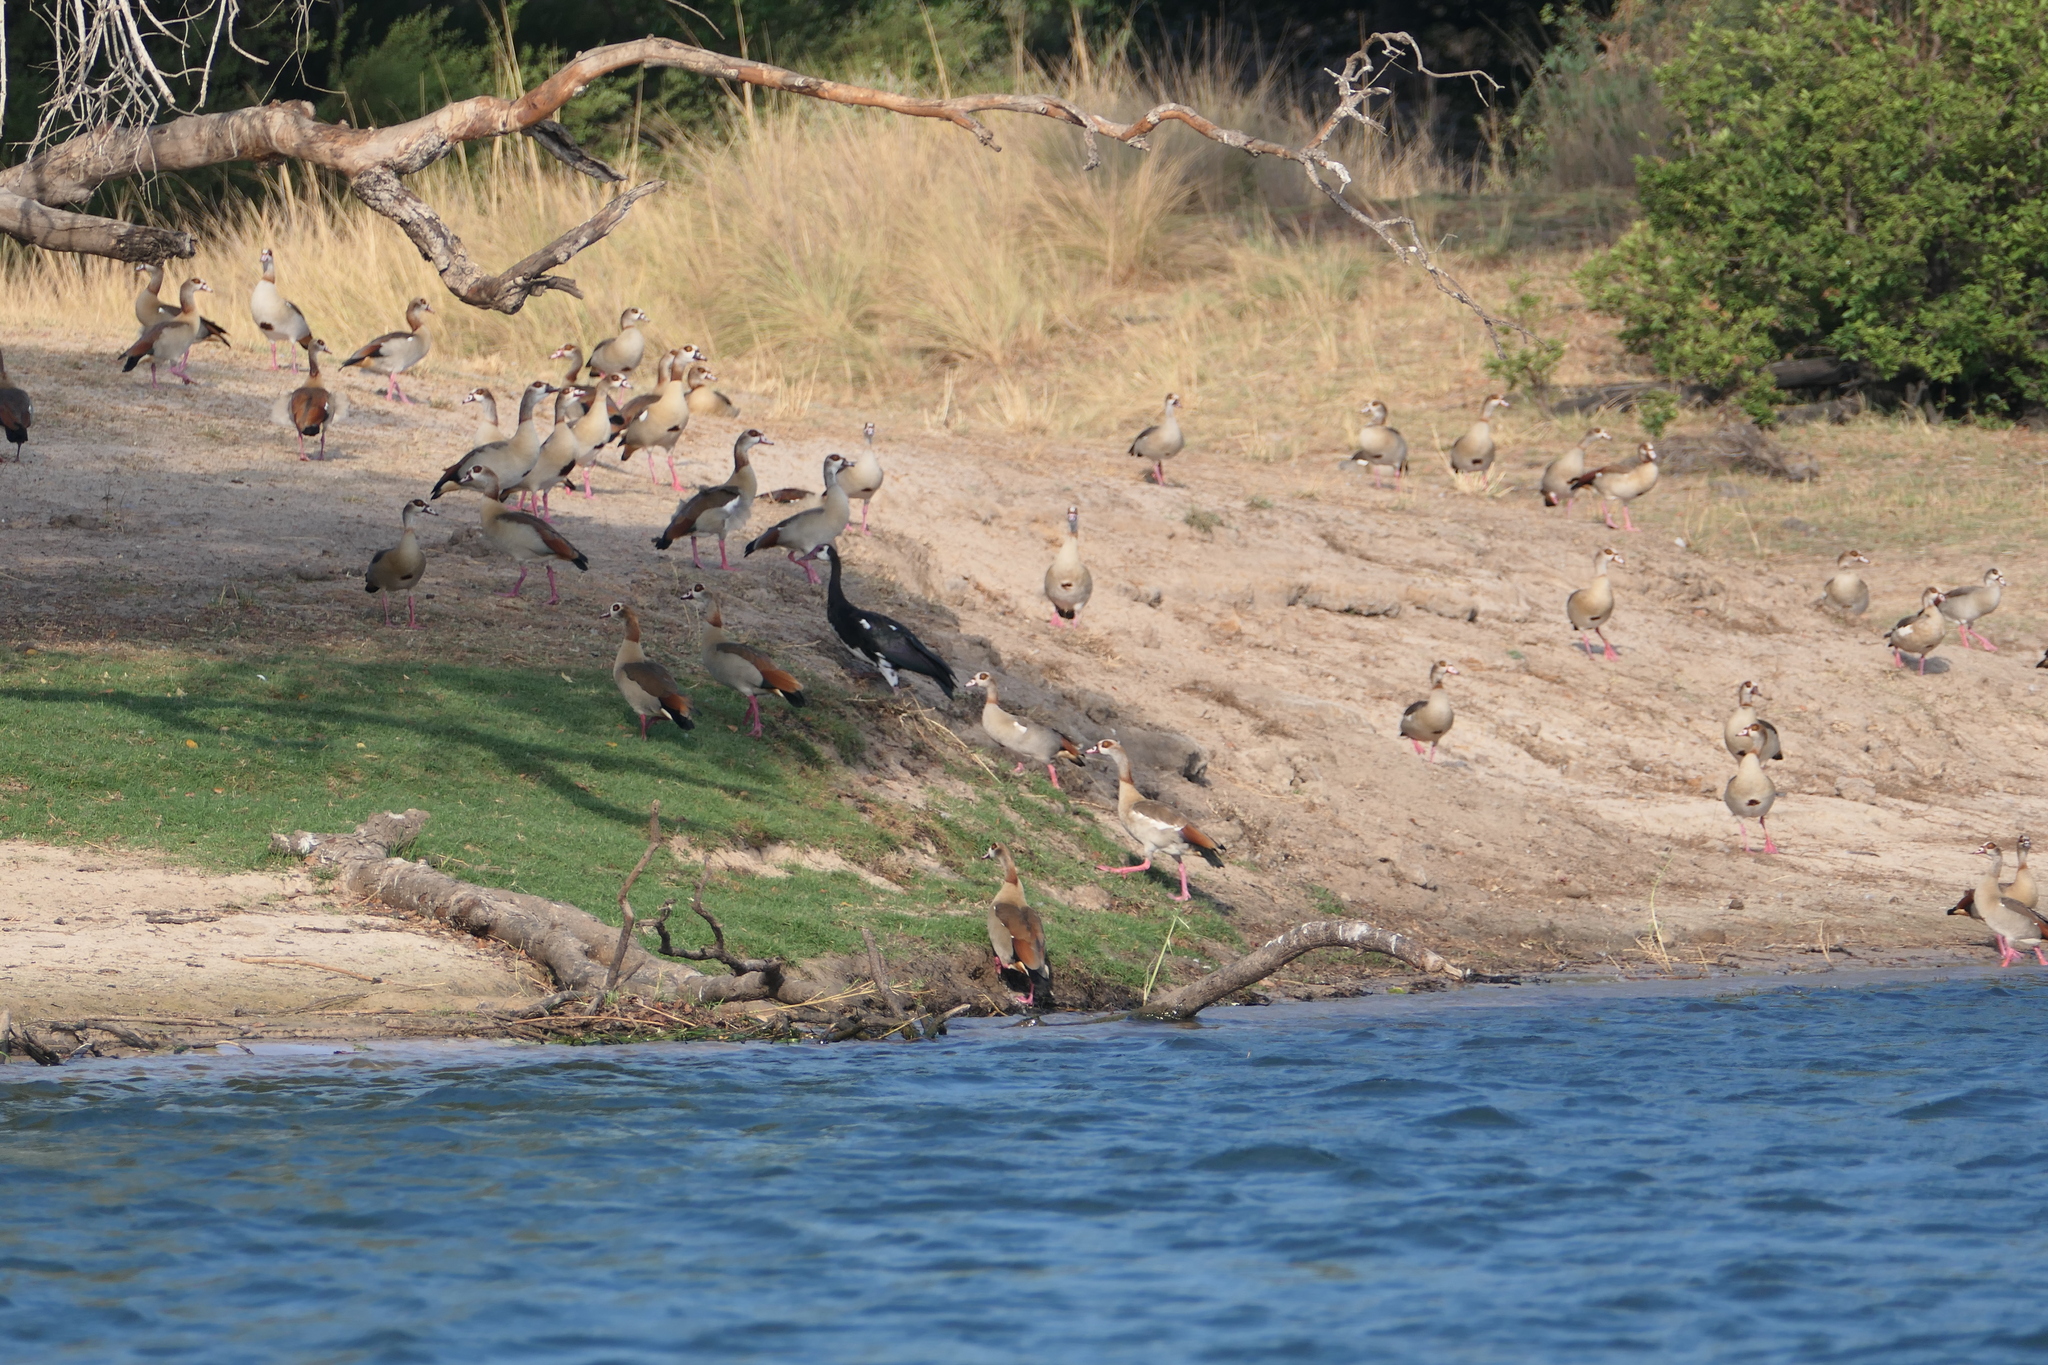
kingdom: Animalia
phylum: Chordata
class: Aves
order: Anseriformes
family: Anatidae
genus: Alopochen
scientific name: Alopochen aegyptiaca
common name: Egyptian goose
